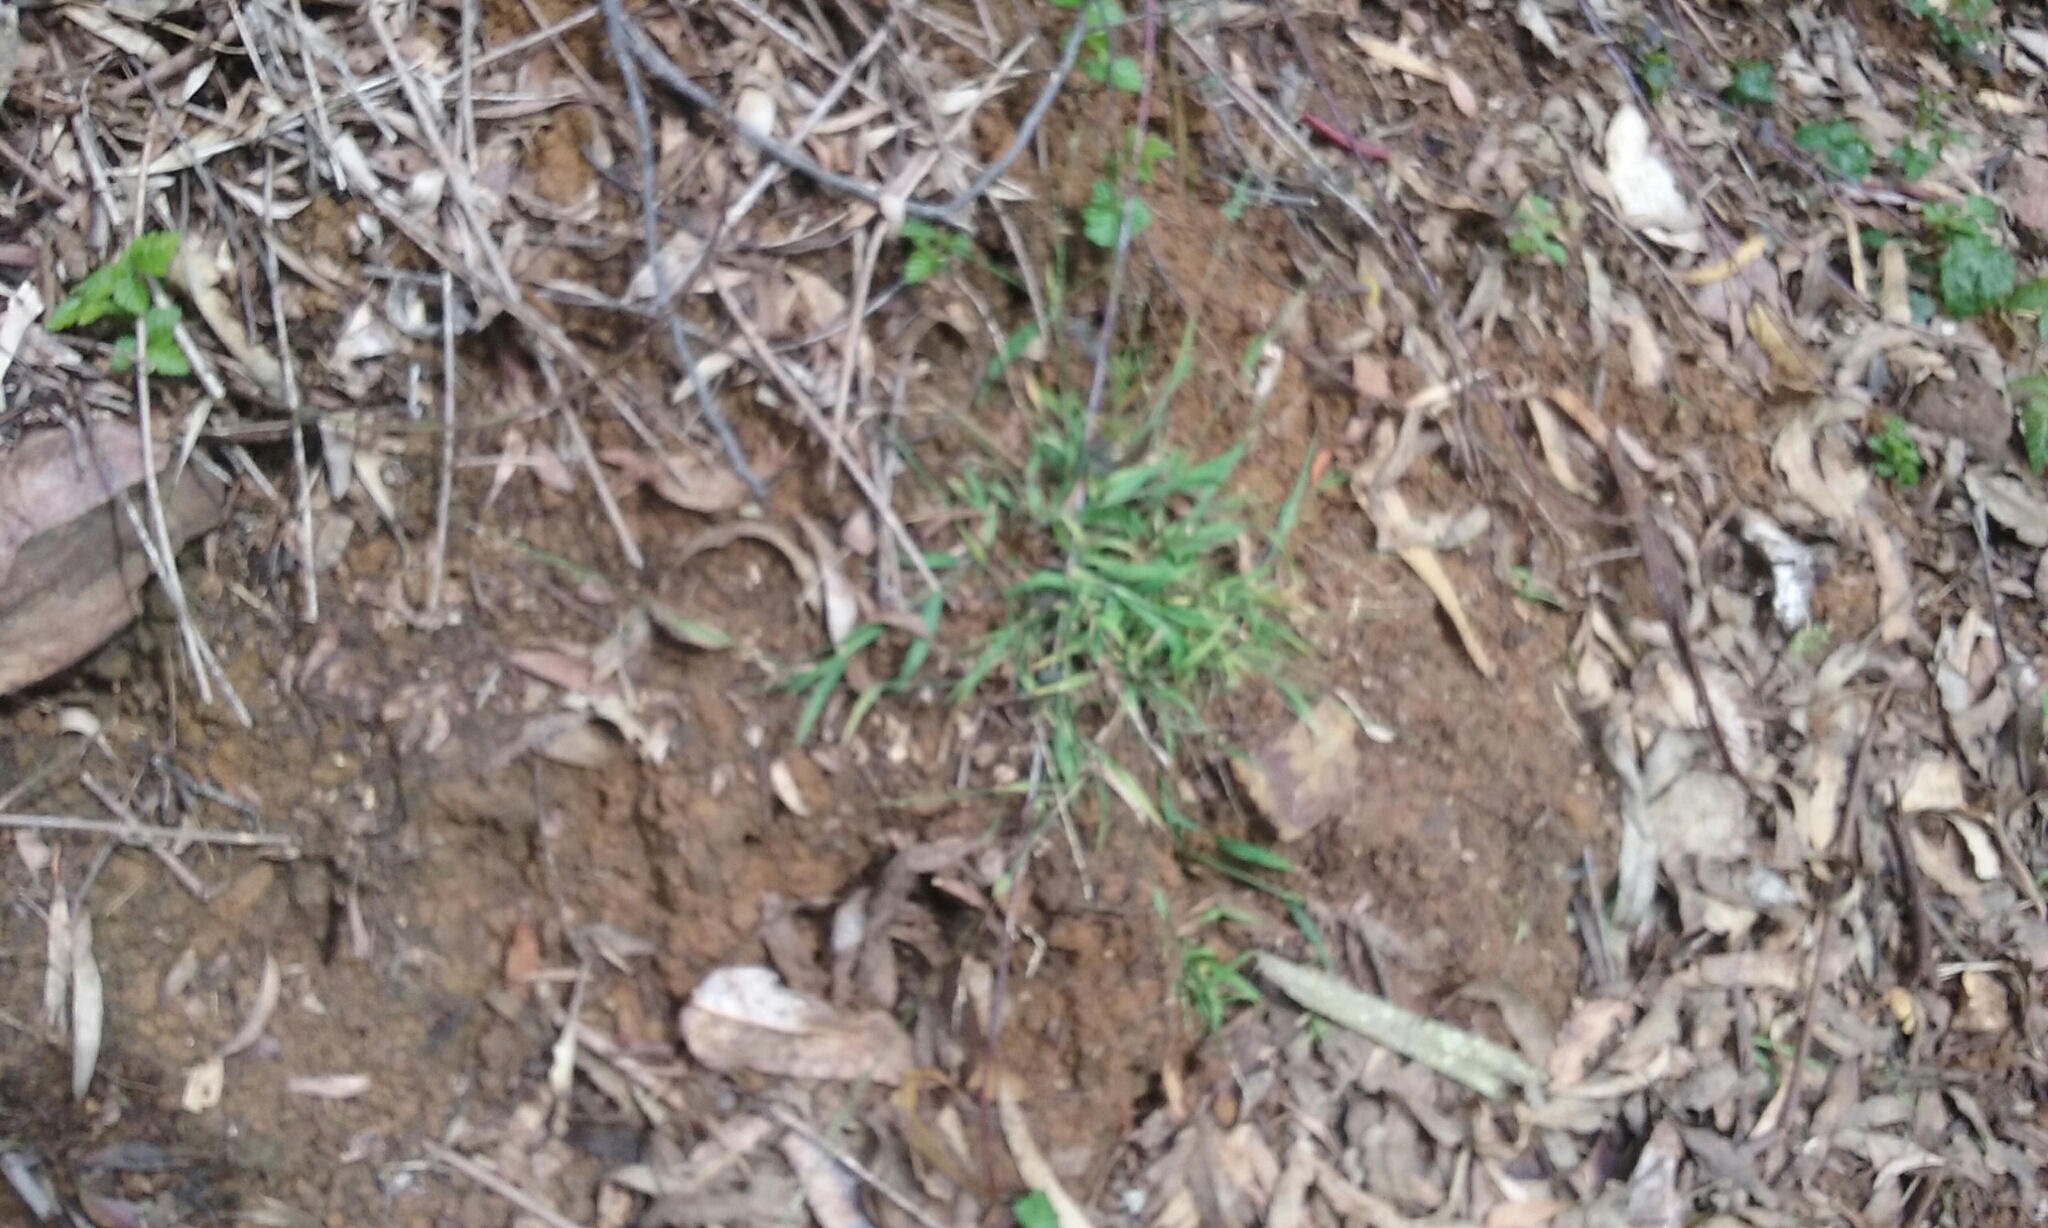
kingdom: Plantae
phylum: Tracheophyta
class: Liliopsida
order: Poales
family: Poaceae
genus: Ehrharta
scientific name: Ehrharta erecta
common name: Panic veldtgrass
